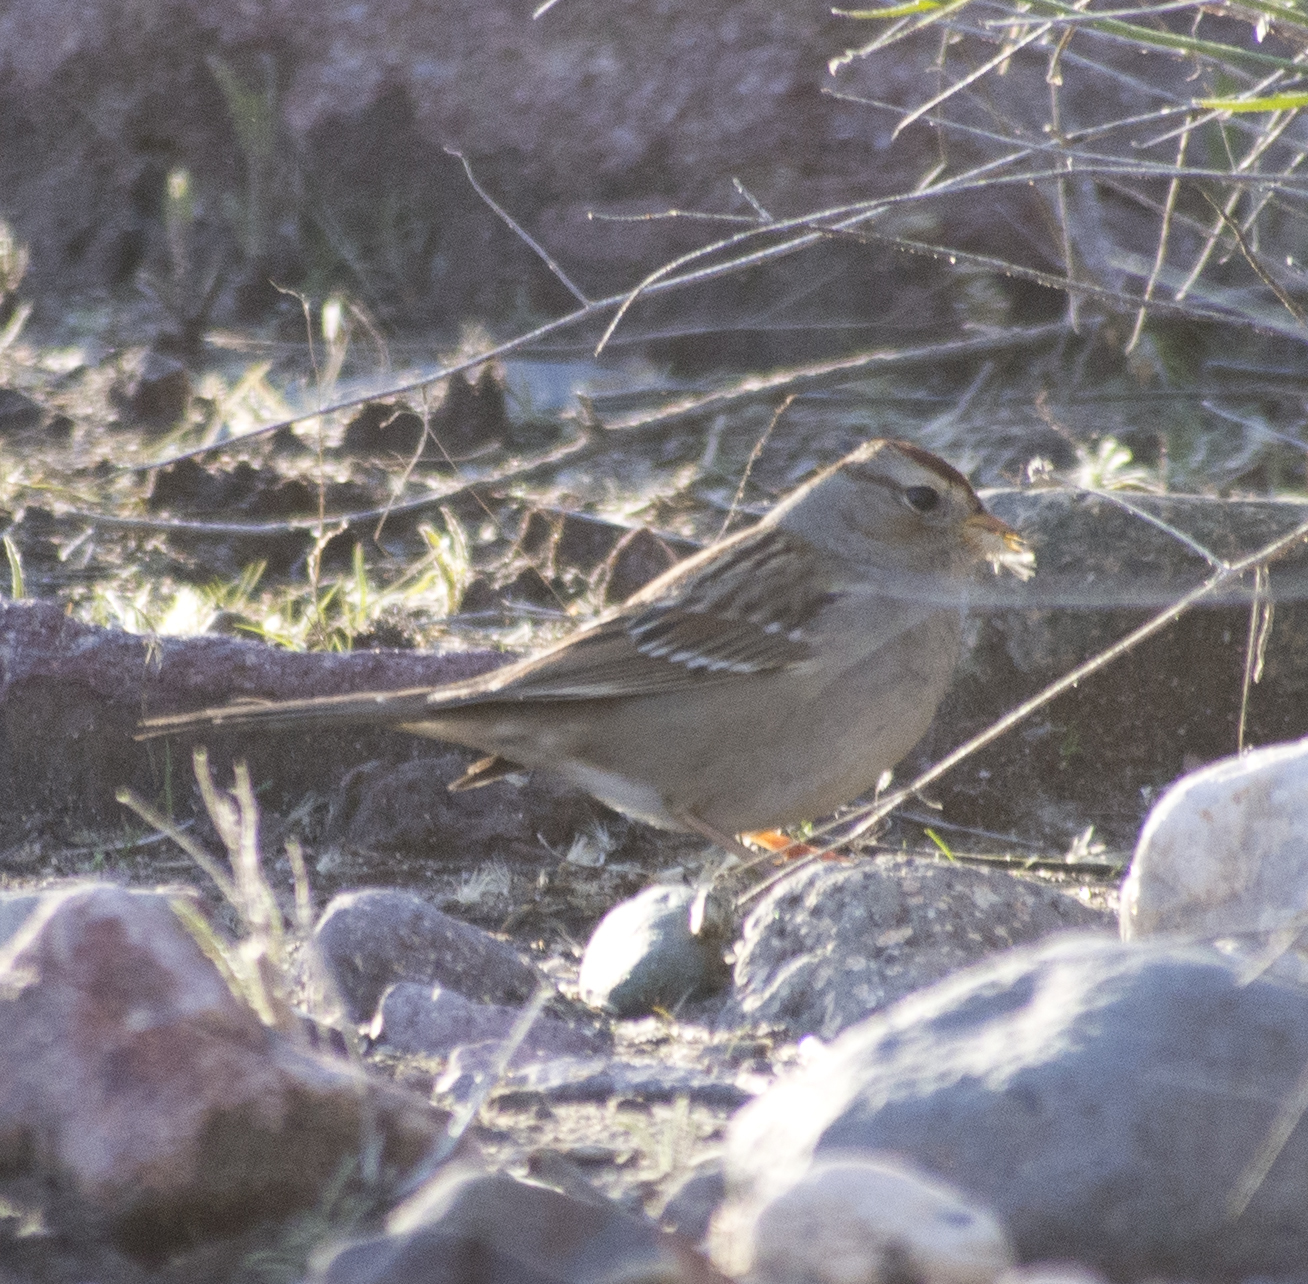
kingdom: Animalia
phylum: Chordata
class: Aves
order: Passeriformes
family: Passerellidae
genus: Zonotrichia
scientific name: Zonotrichia leucophrys
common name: White-crowned sparrow
